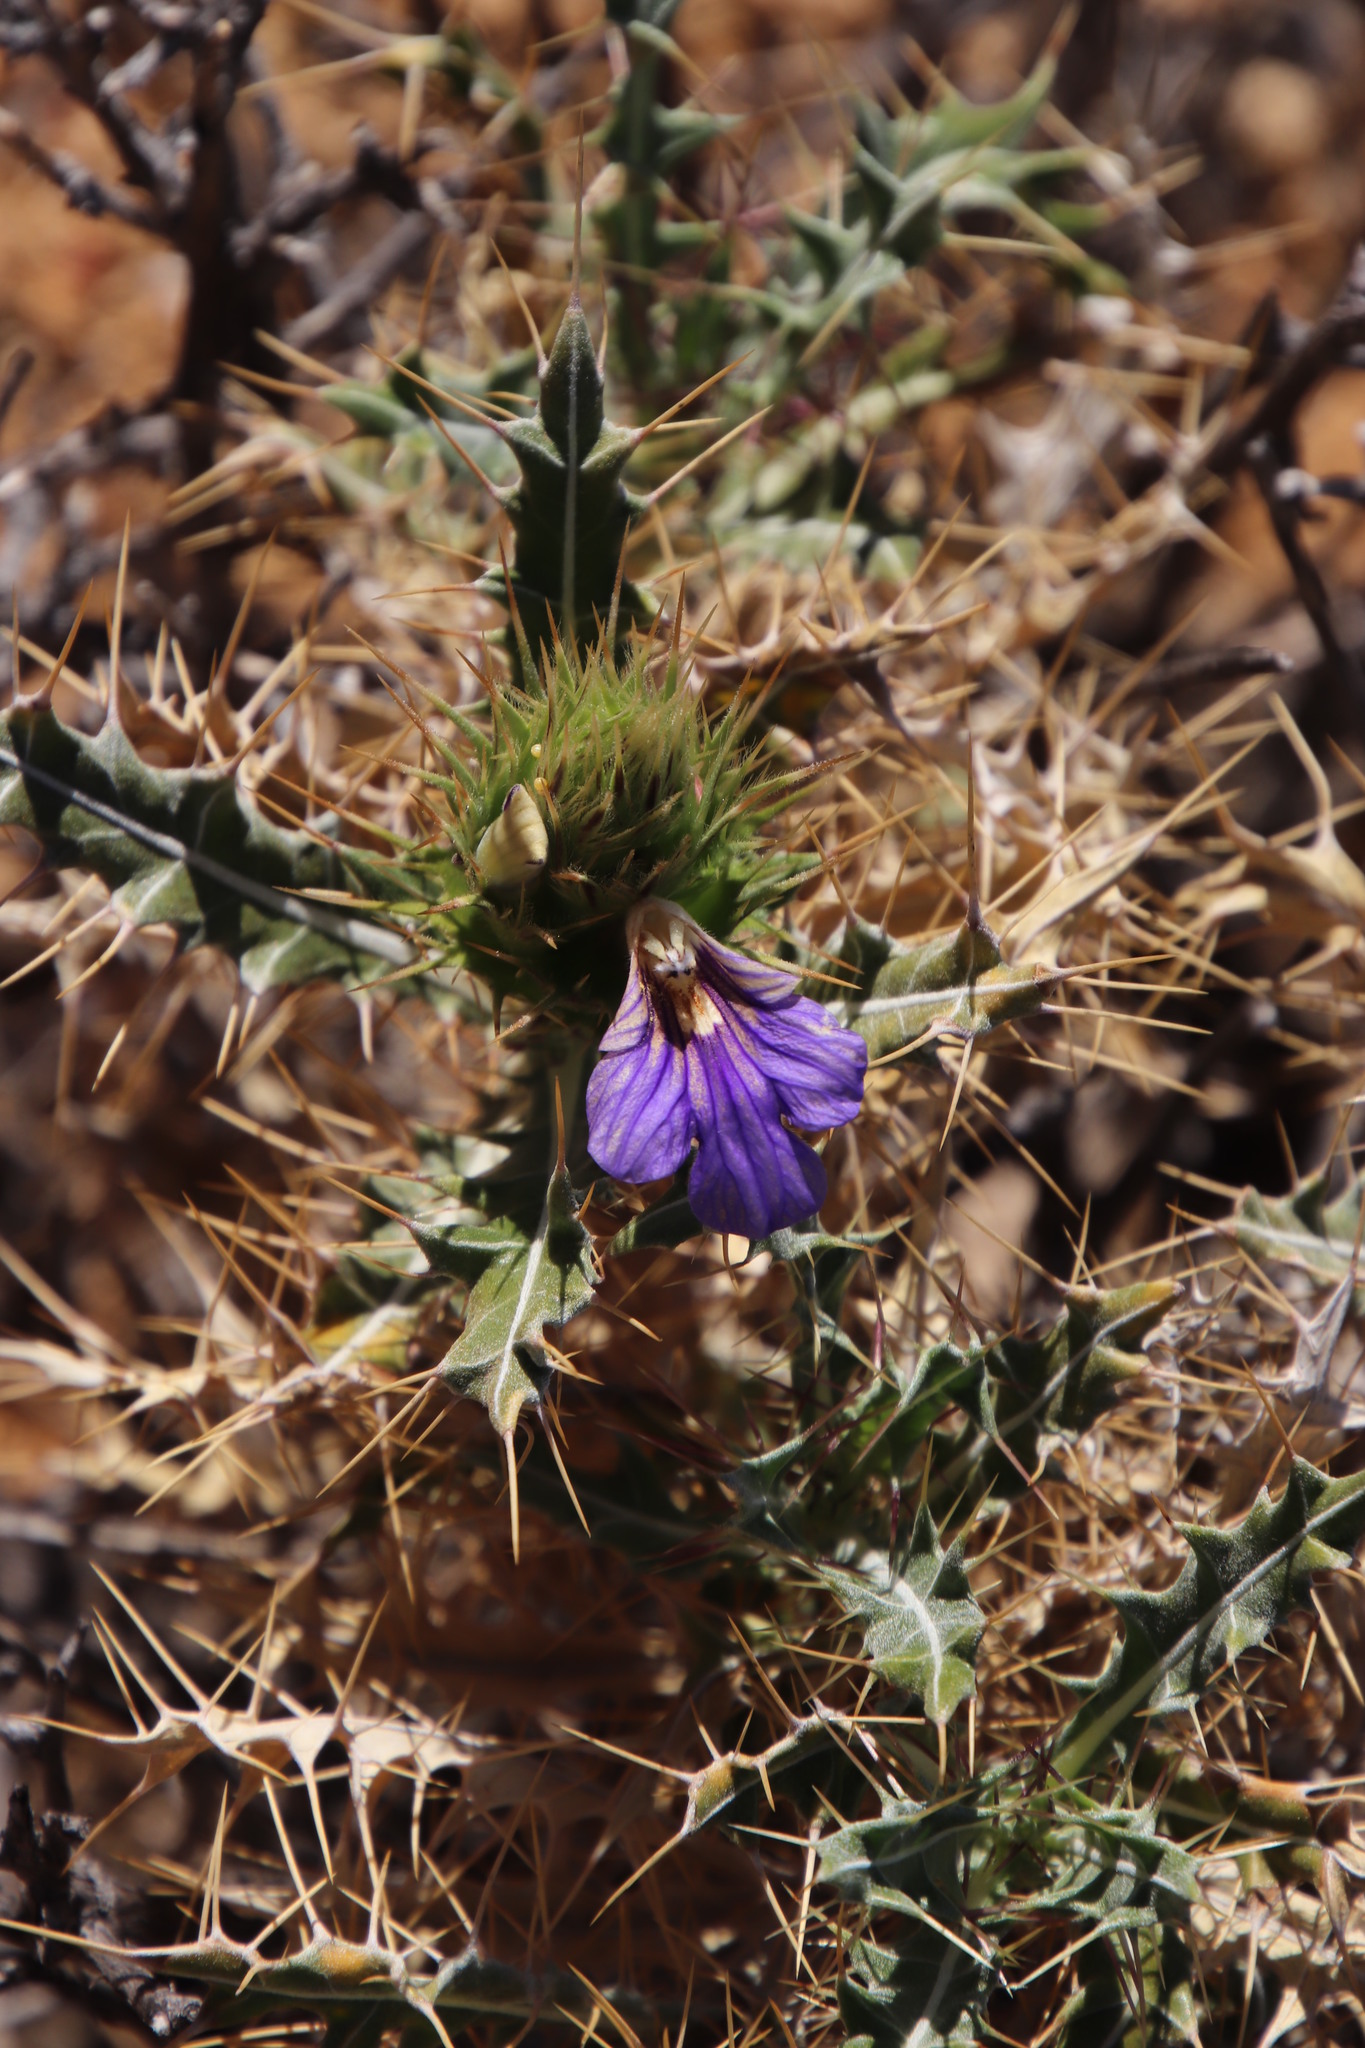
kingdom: Plantae
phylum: Tracheophyta
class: Magnoliopsida
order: Lamiales
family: Acanthaceae
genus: Acanthopsis
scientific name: Acanthopsis horrida
